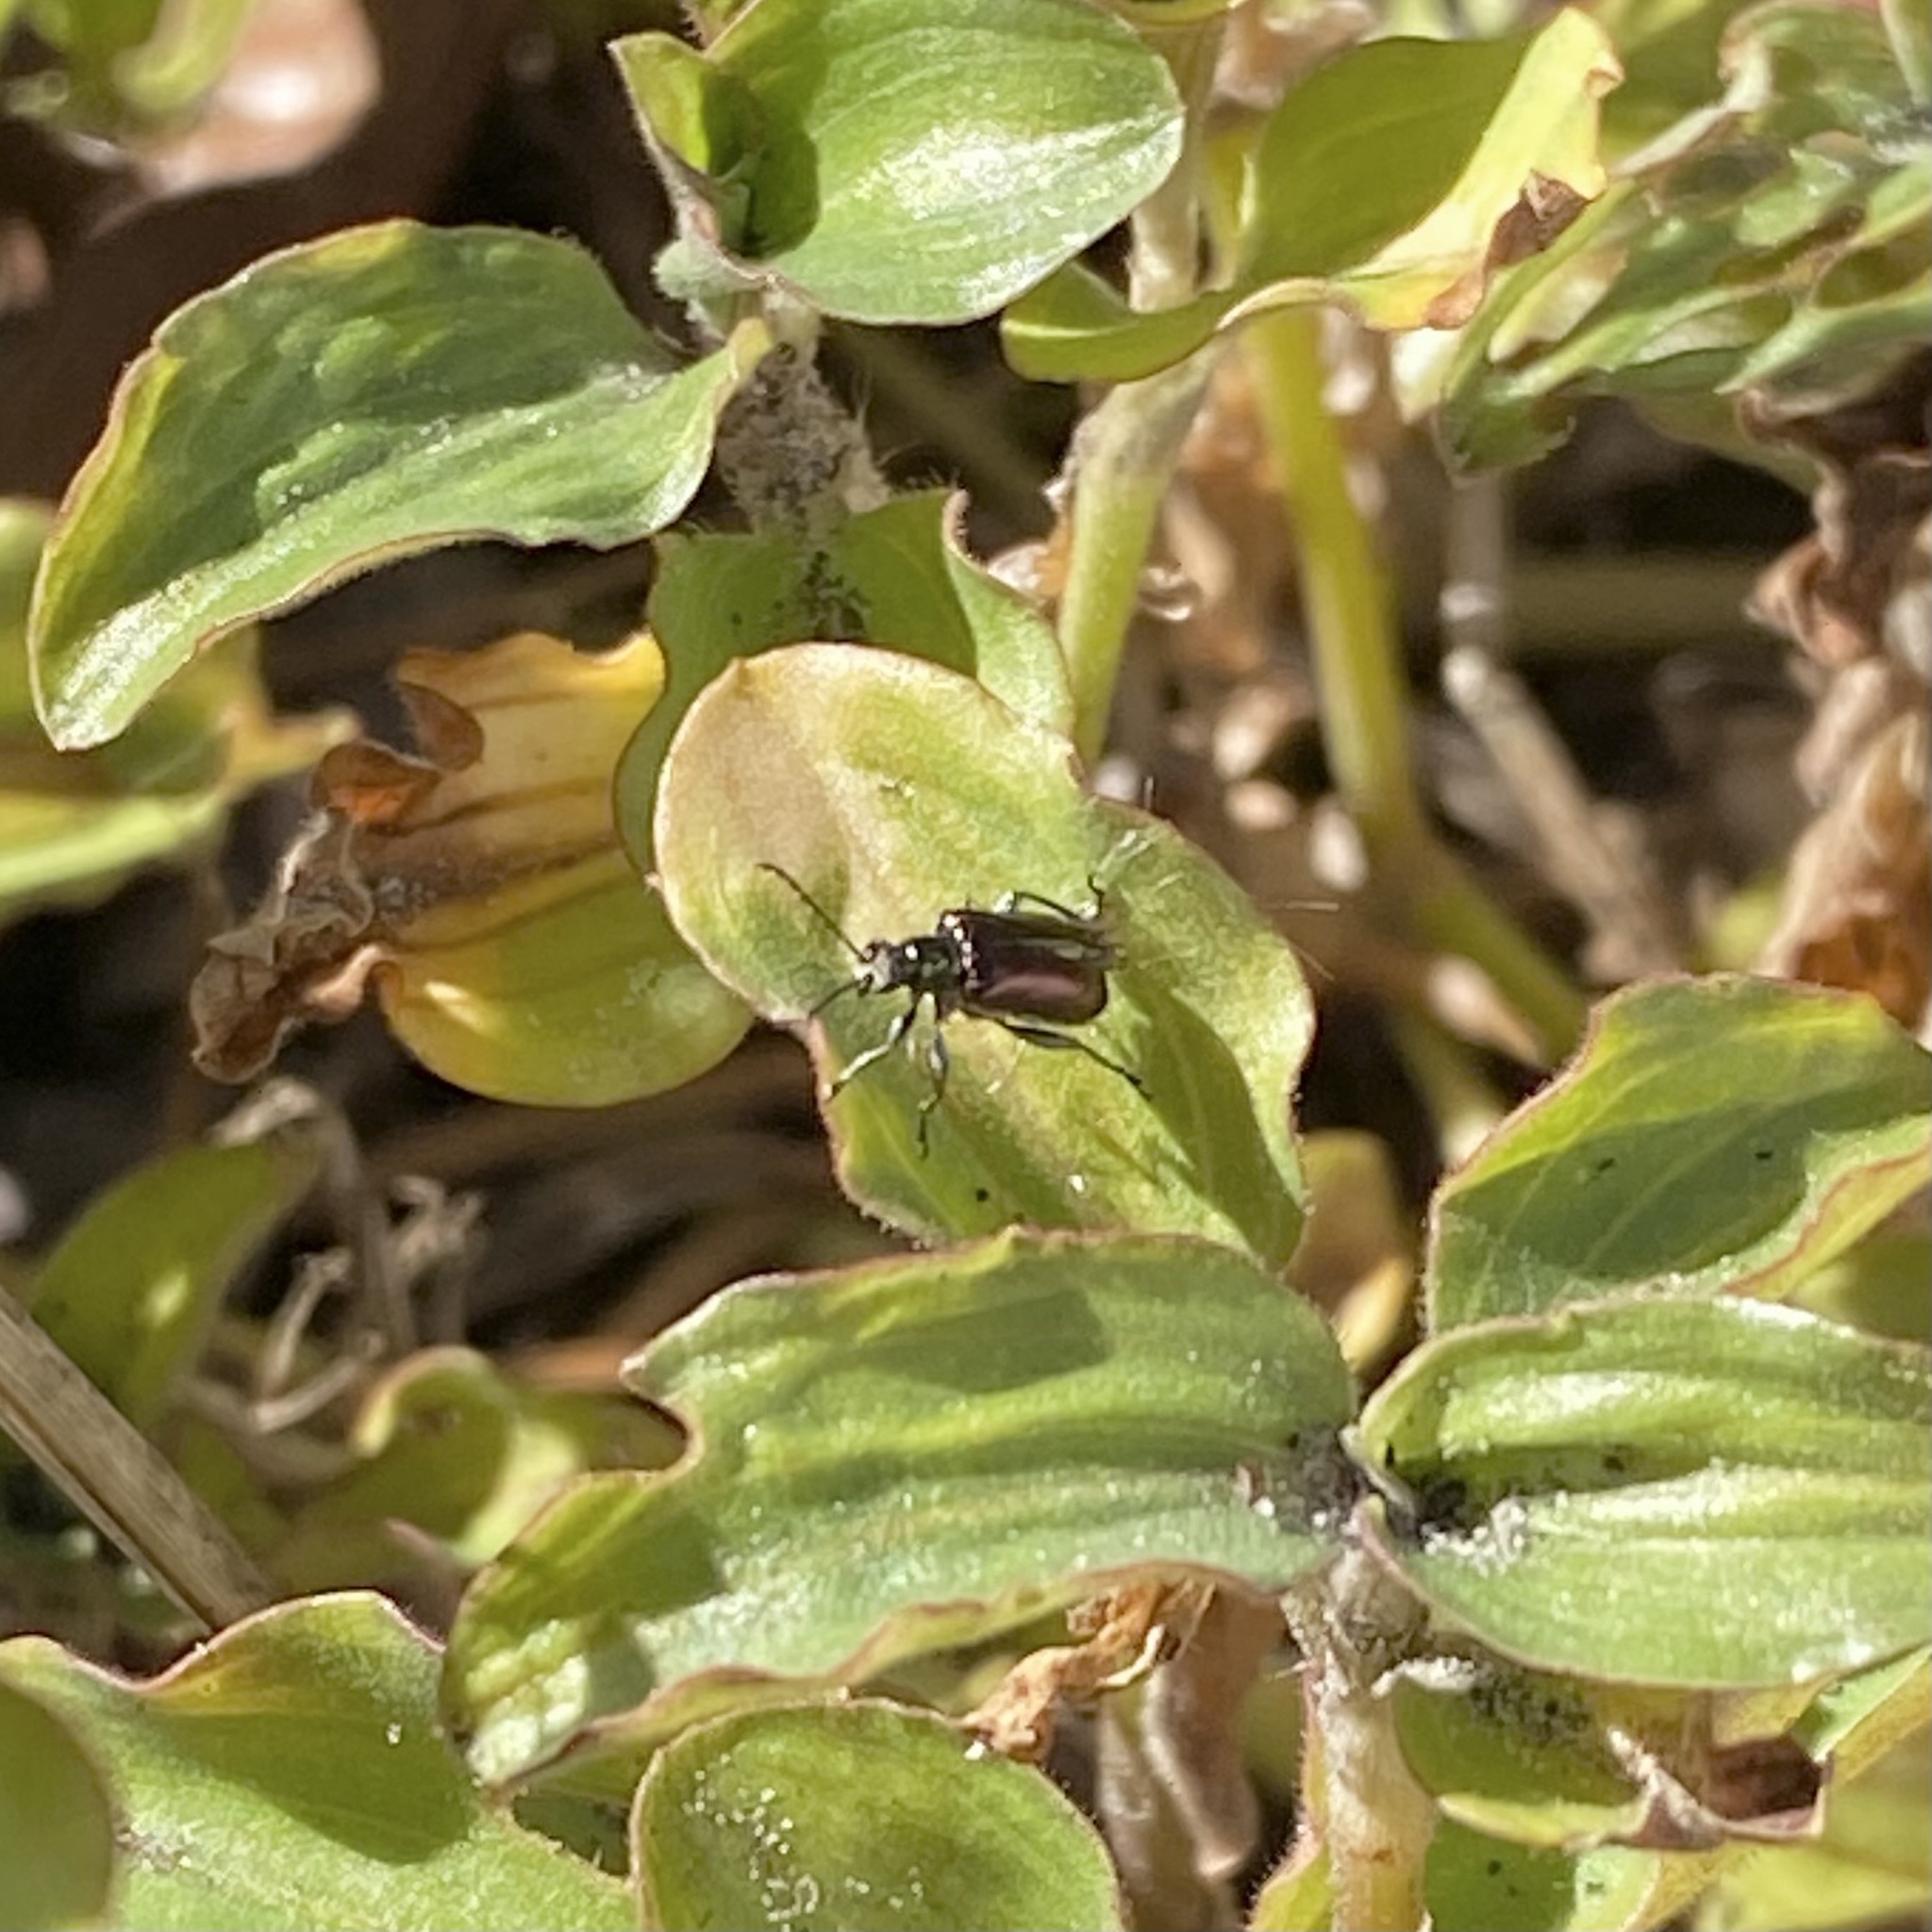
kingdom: Animalia
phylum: Arthropoda
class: Insecta
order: Coleoptera
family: Chrysomelidae
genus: Lema
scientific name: Lema
